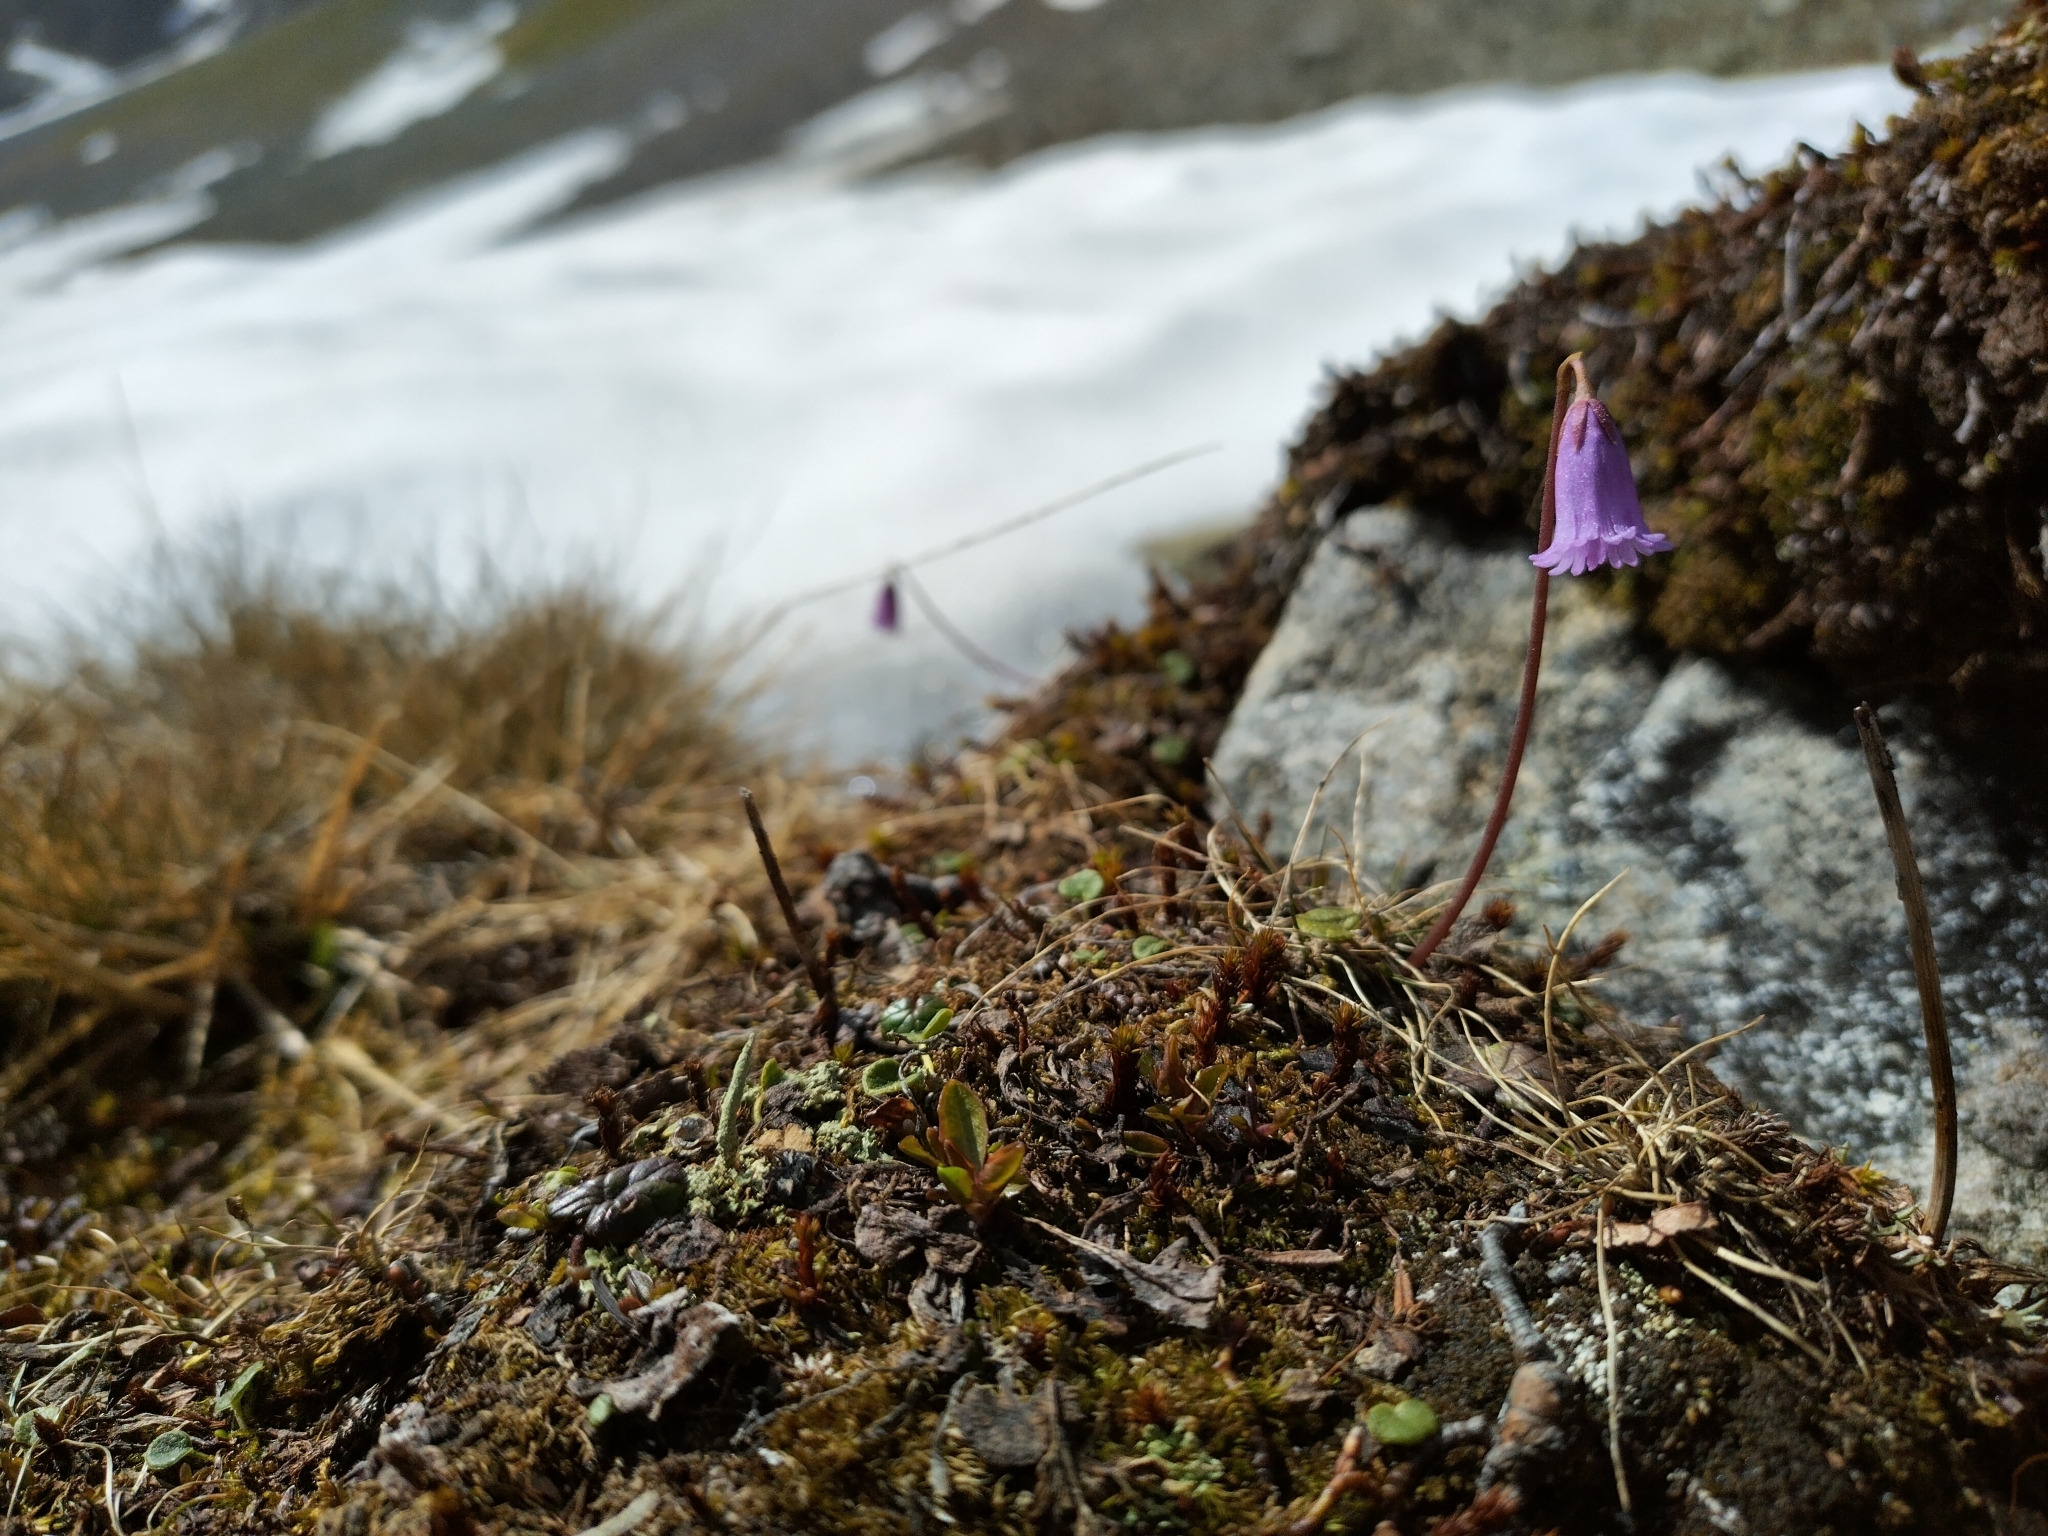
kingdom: Plantae
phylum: Tracheophyta
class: Magnoliopsida
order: Ericales
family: Primulaceae
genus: Soldanella
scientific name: Soldanella alpicola
